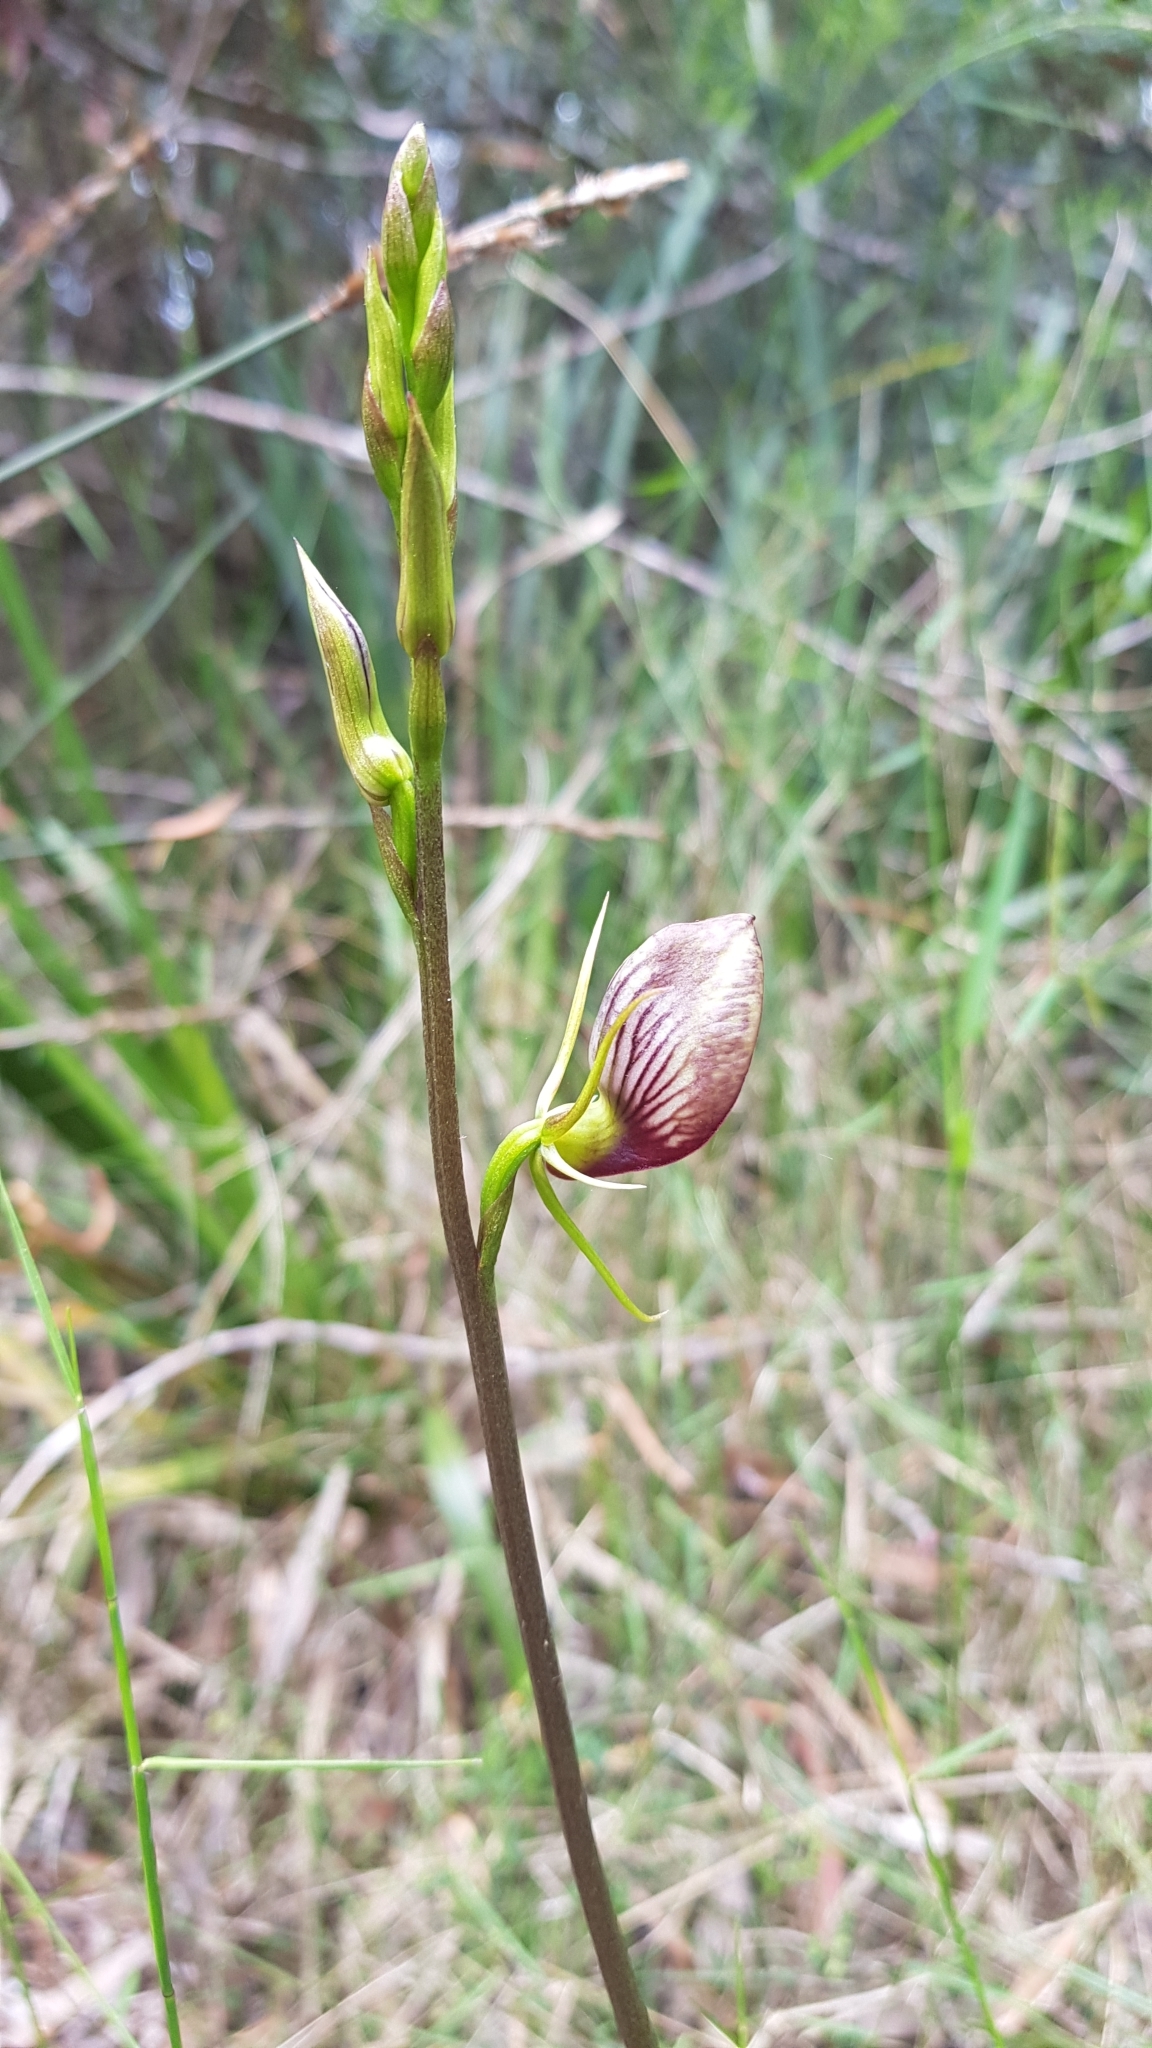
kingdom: Plantae
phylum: Tracheophyta
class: Liliopsida
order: Asparagales
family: Orchidaceae
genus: Cryptostylis
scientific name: Cryptostylis erecta
